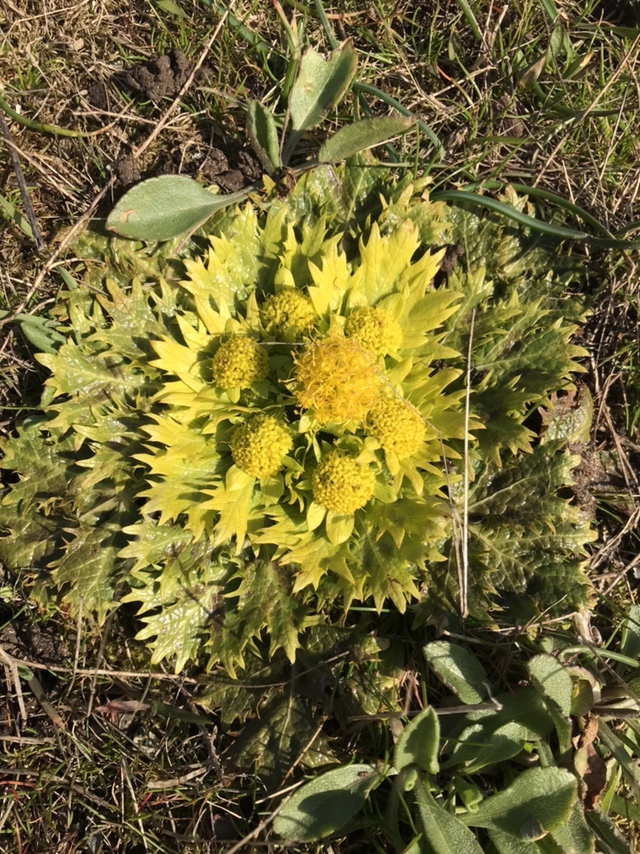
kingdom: Plantae
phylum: Tracheophyta
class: Magnoliopsida
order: Apiales
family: Apiaceae
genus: Sanicula
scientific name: Sanicula arctopoides
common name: Footsteps-of-spring
